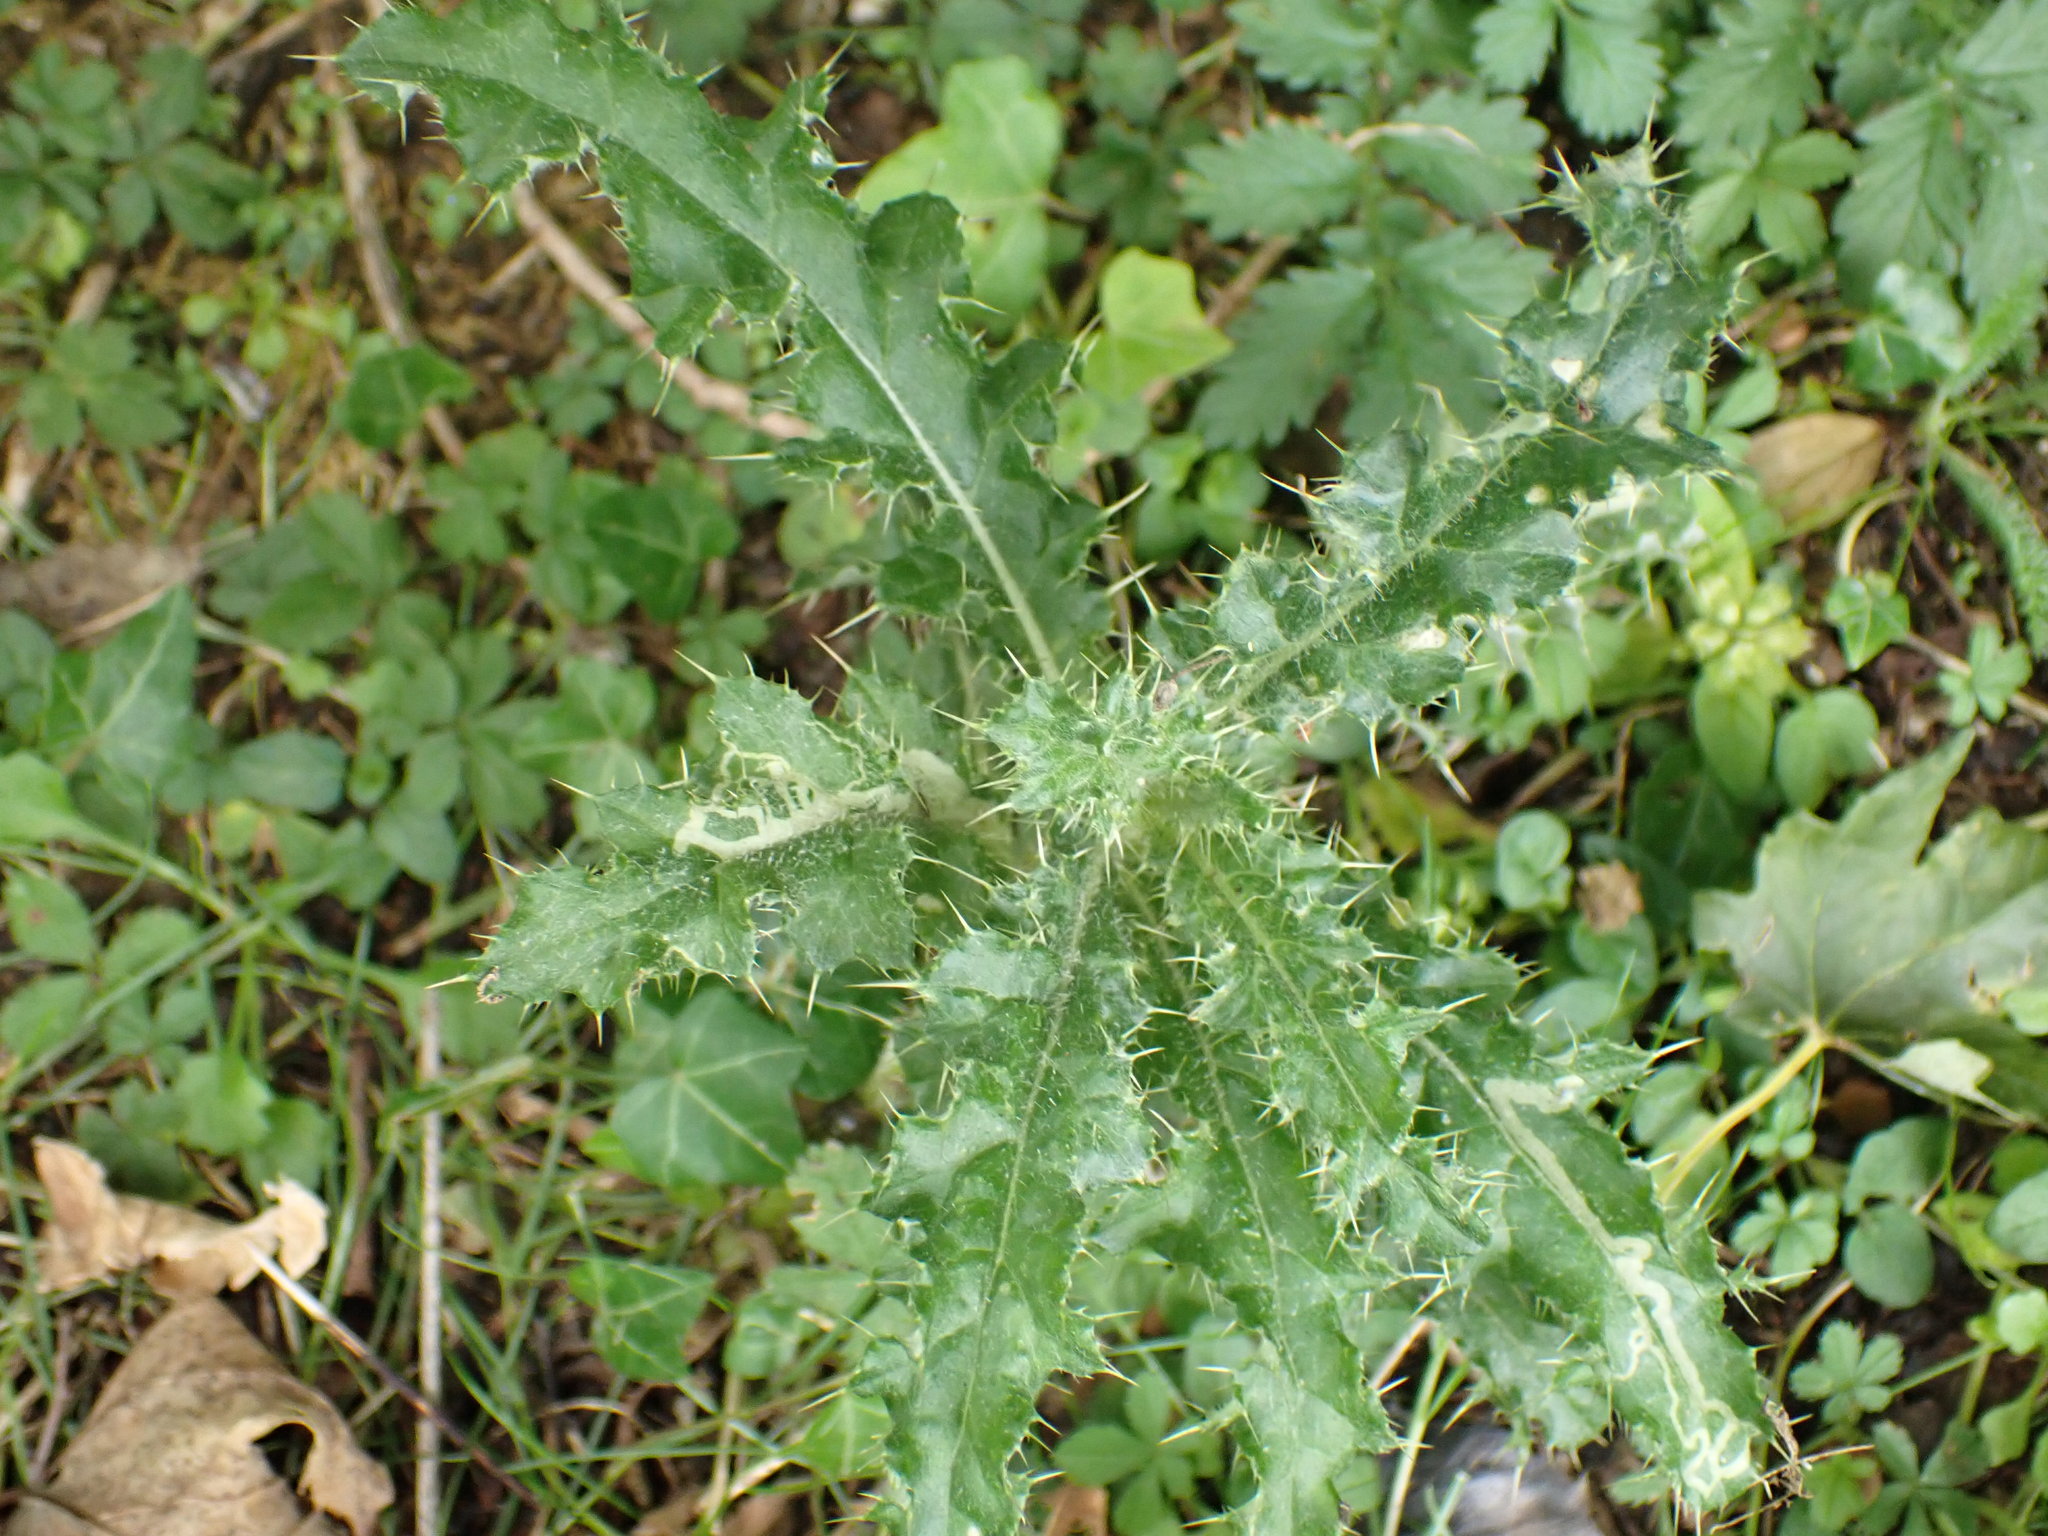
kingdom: Plantae
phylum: Tracheophyta
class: Magnoliopsida
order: Asterales
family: Asteraceae
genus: Cirsium
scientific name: Cirsium arvense
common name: Creeping thistle
